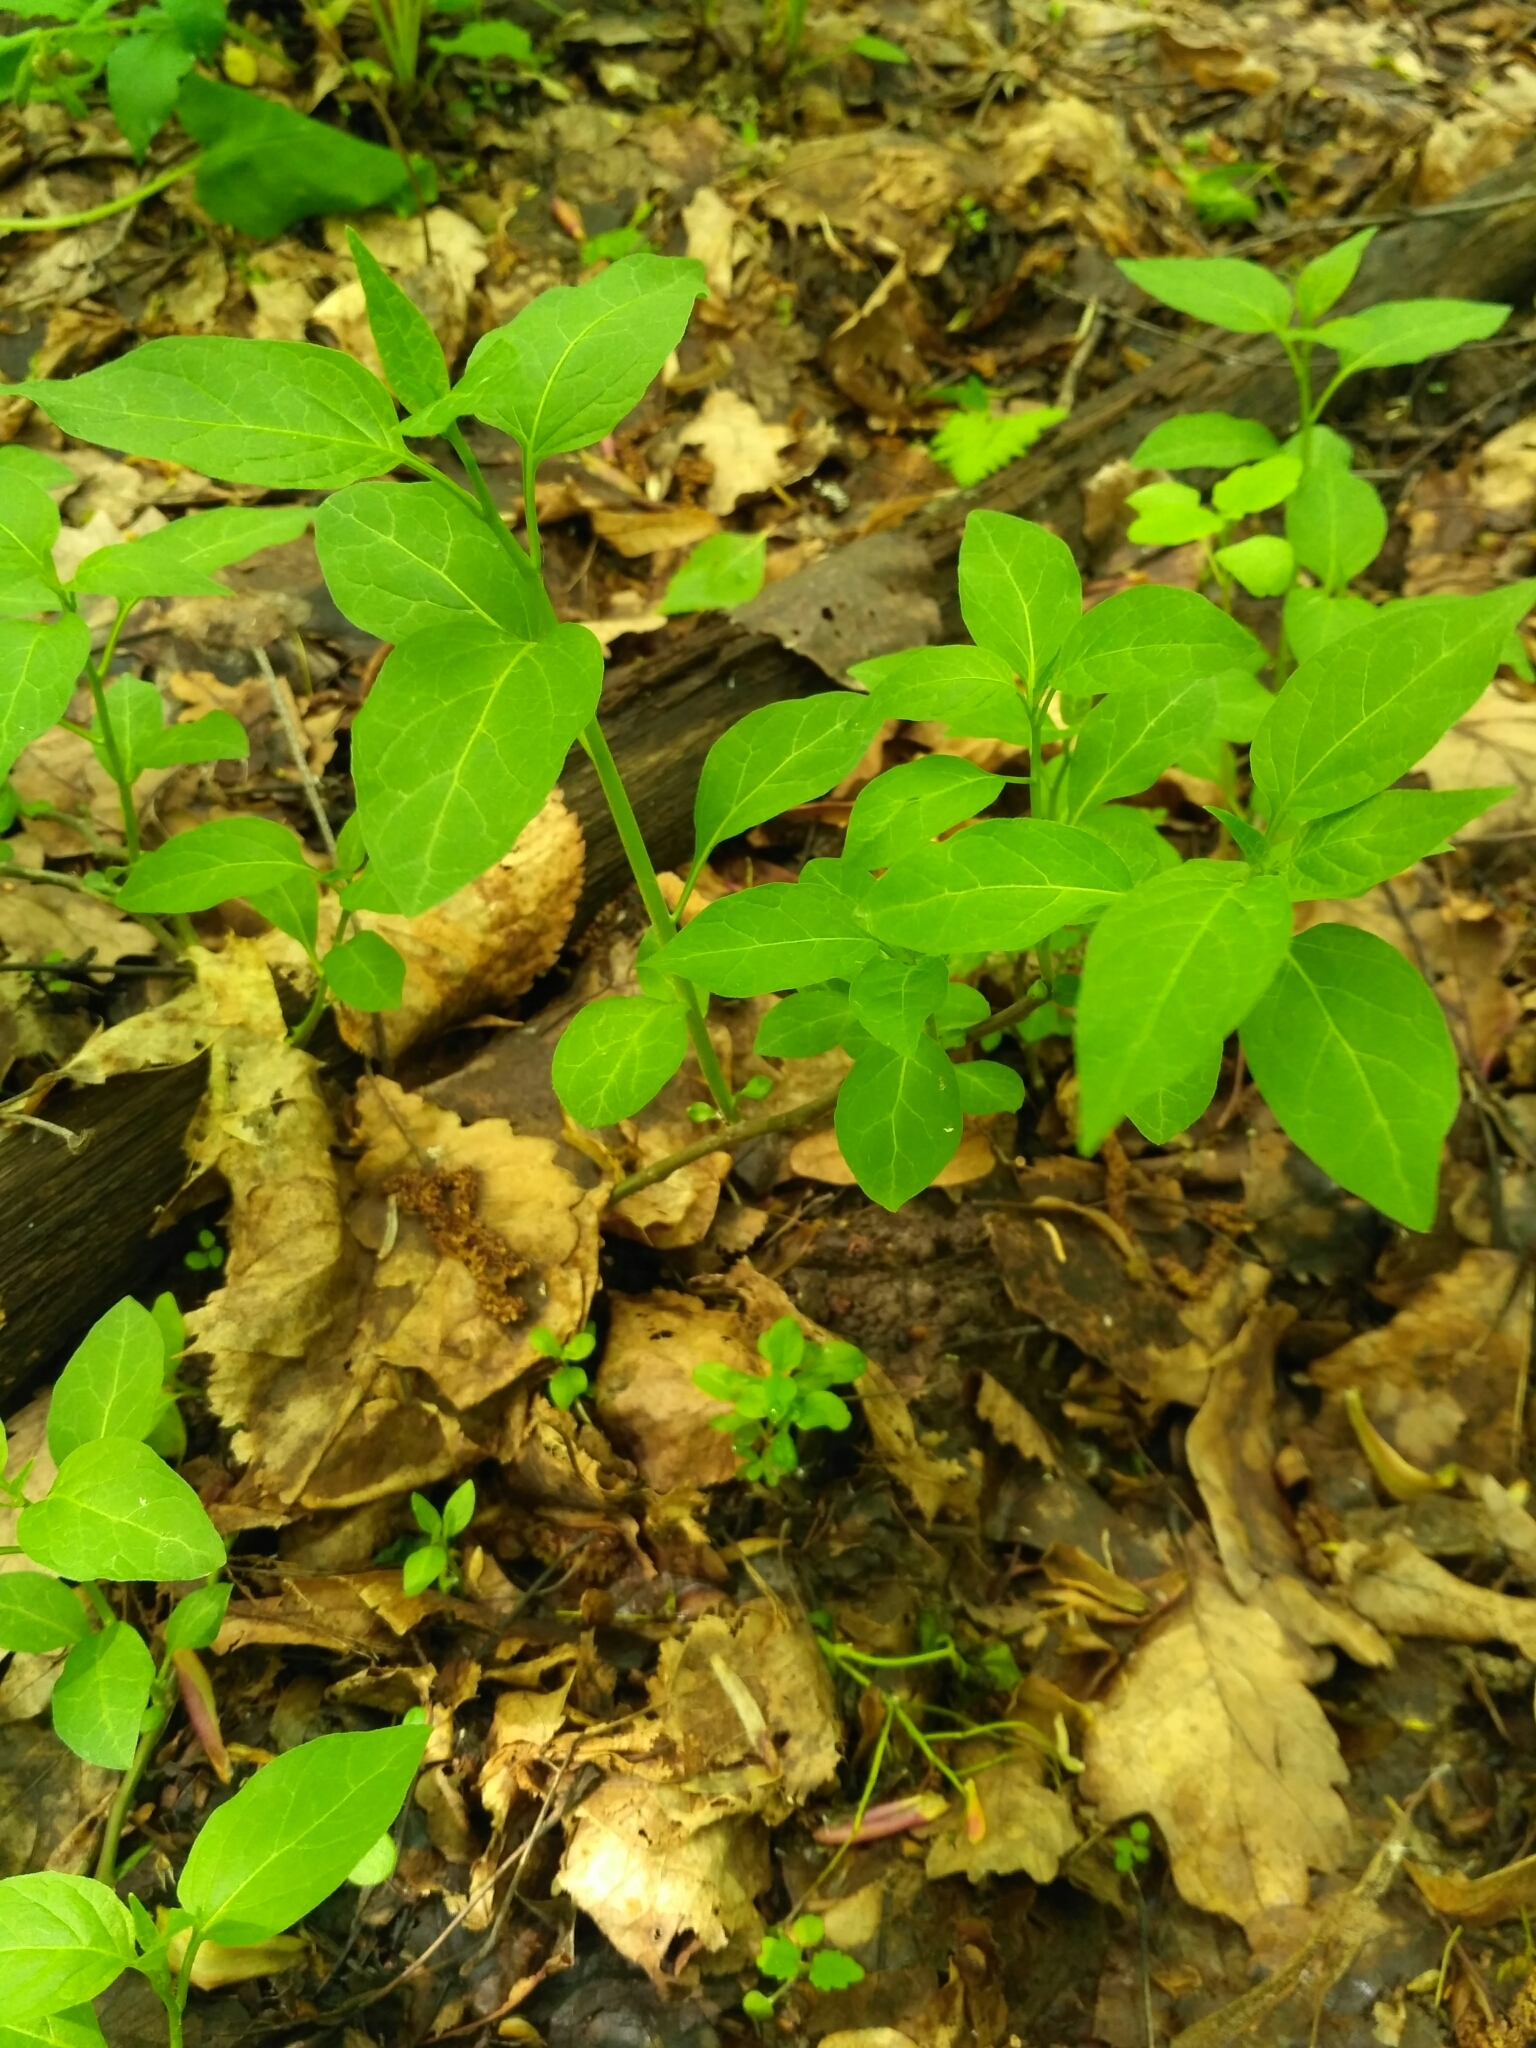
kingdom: Plantae
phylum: Tracheophyta
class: Magnoliopsida
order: Solanales
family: Solanaceae
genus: Solanum
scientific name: Solanum dulcamara
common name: Climbing nightshade
